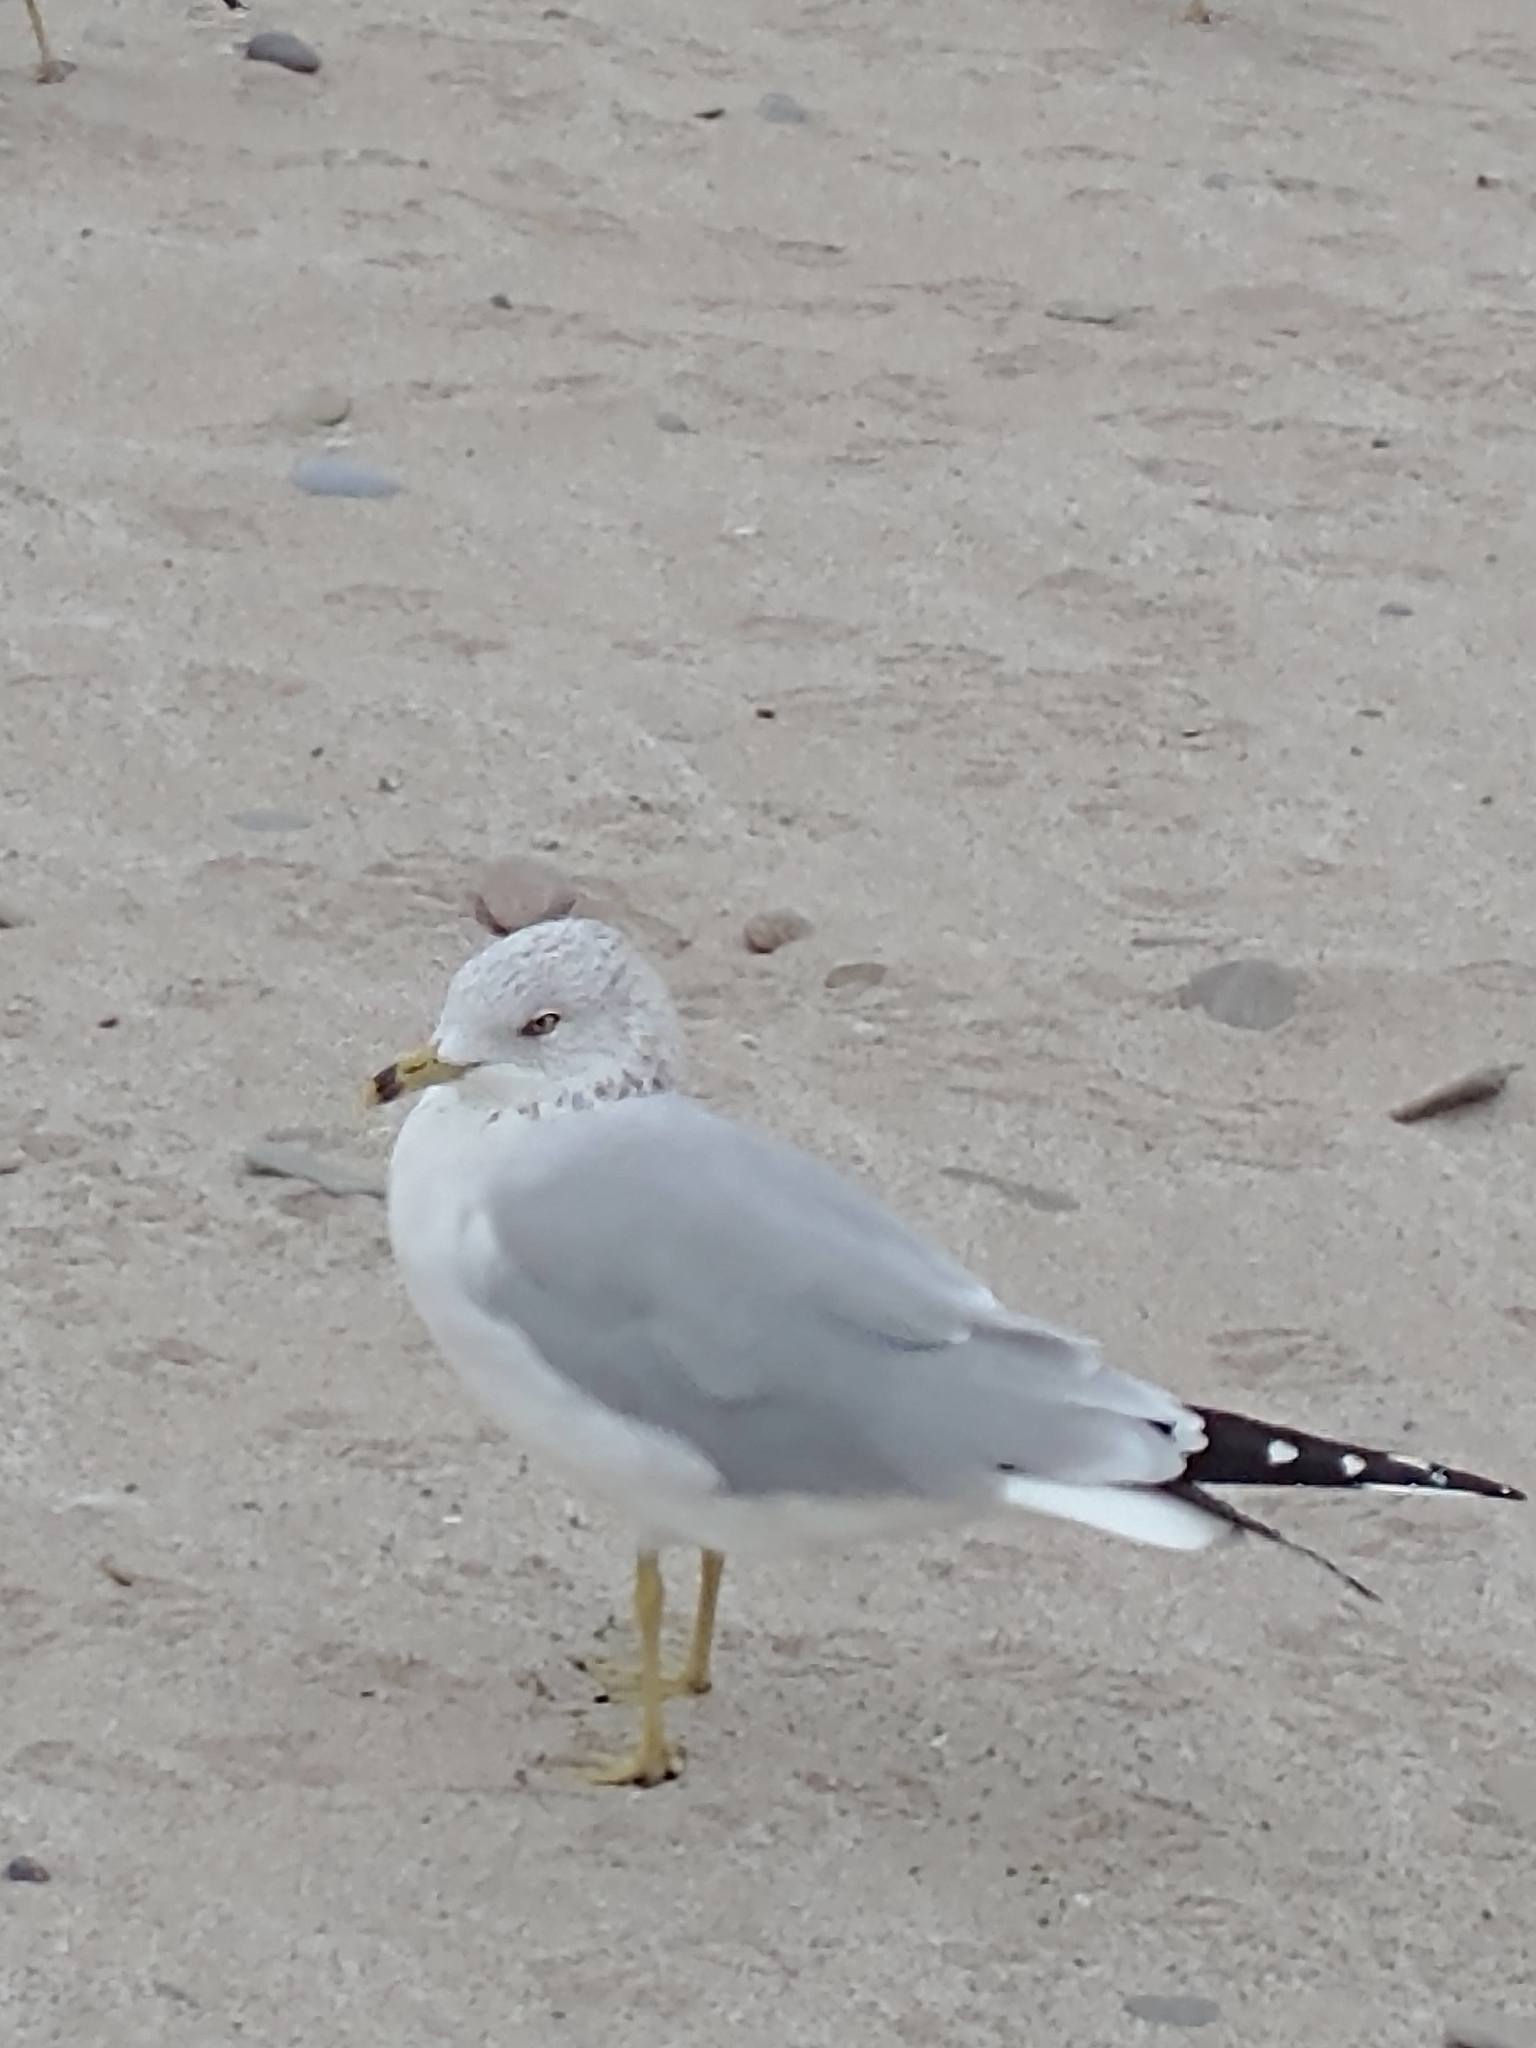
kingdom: Animalia
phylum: Chordata
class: Aves
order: Charadriiformes
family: Laridae
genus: Larus
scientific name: Larus delawarensis
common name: Ring-billed gull
